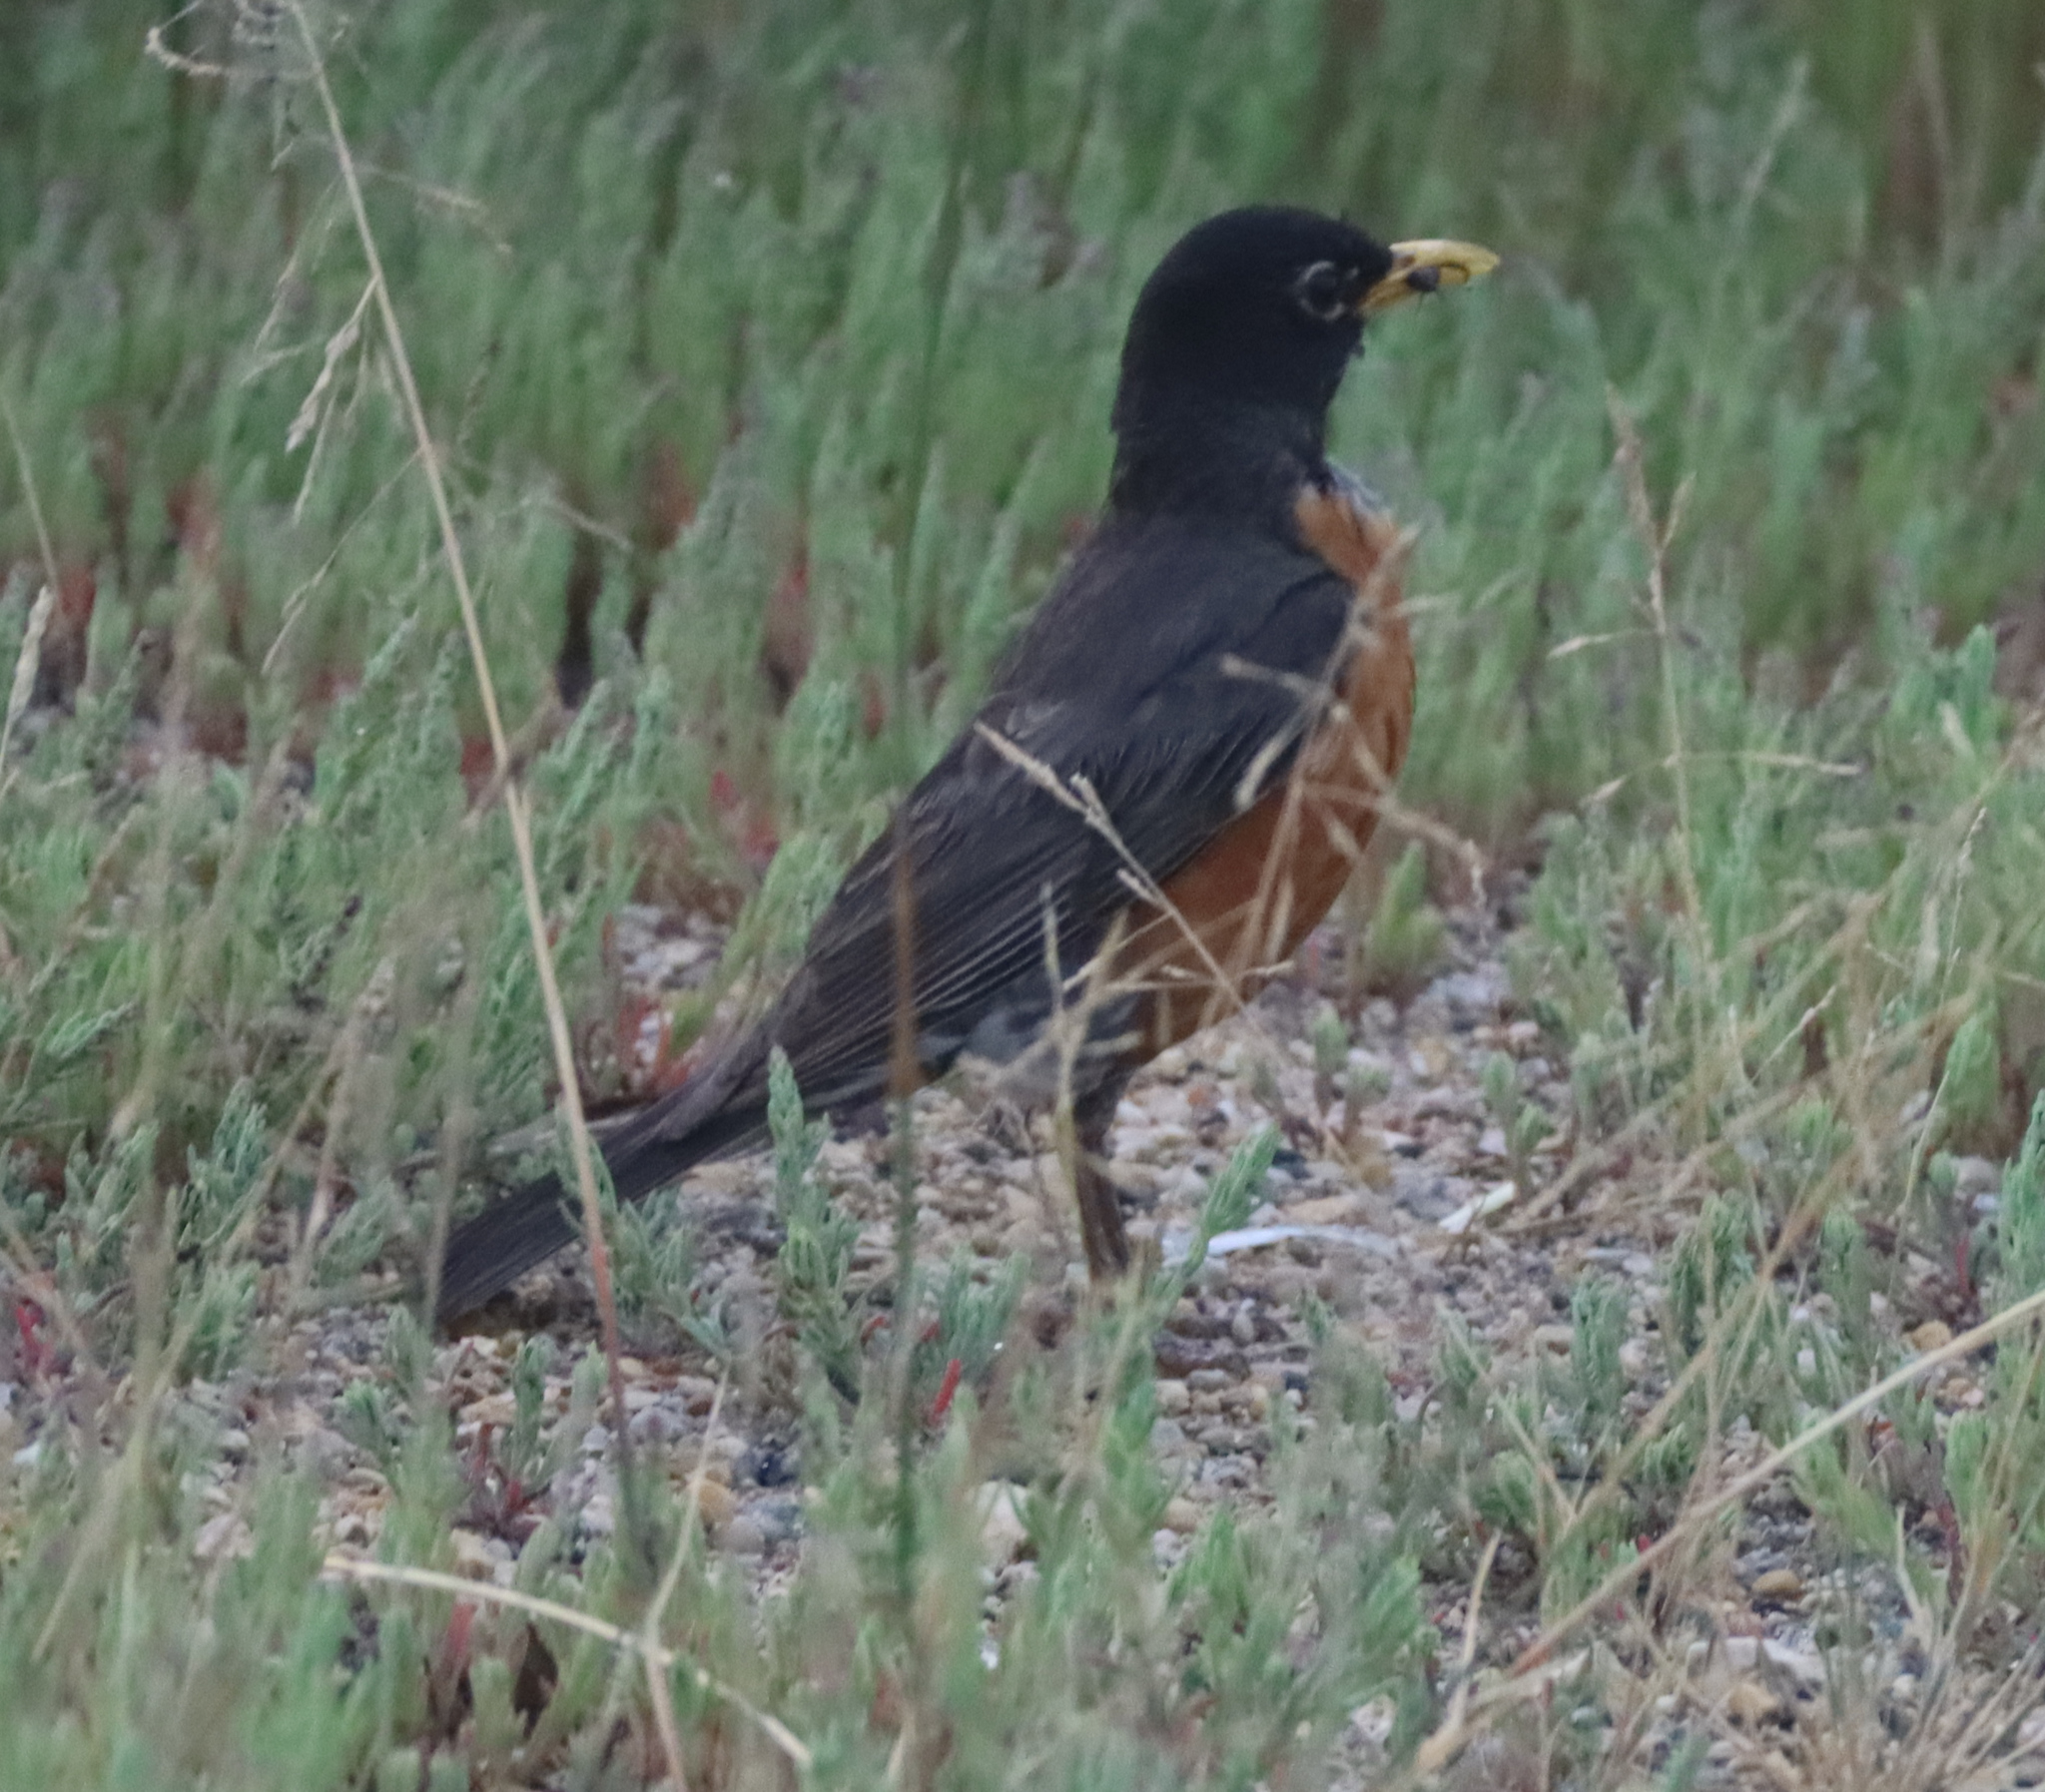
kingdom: Animalia
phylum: Chordata
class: Aves
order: Passeriformes
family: Turdidae
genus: Turdus
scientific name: Turdus migratorius
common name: American robin
